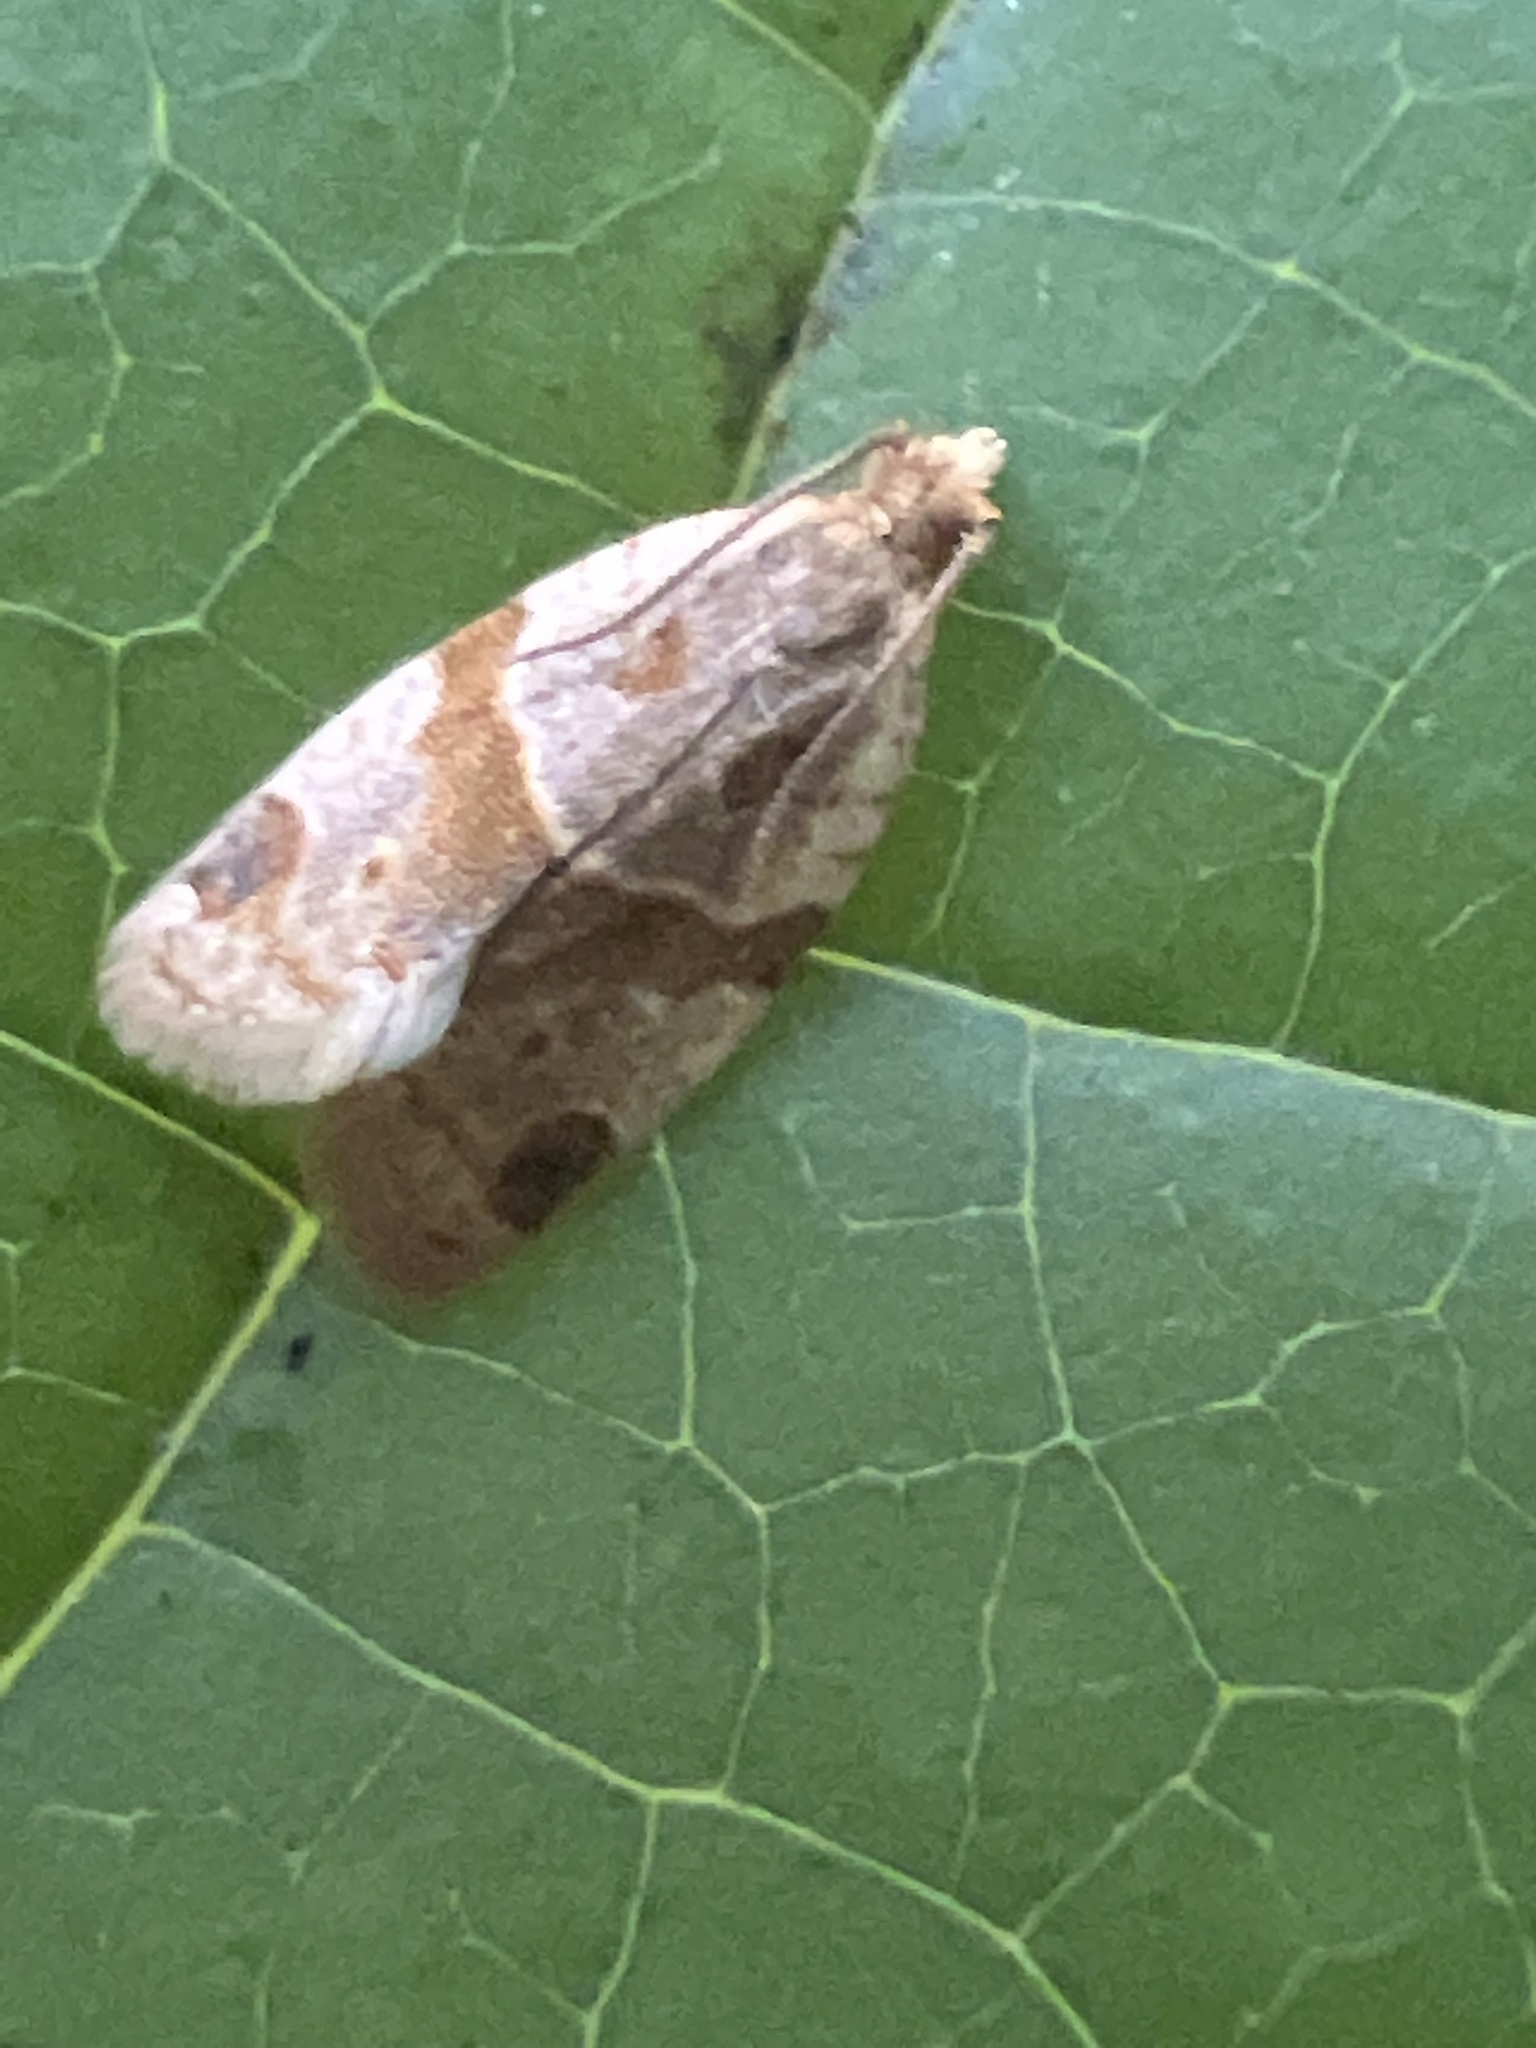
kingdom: Animalia
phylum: Arthropoda
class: Insecta
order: Lepidoptera
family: Tortricidae
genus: Clepsis
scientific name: Clepsis peritana
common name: Garden tortrix
